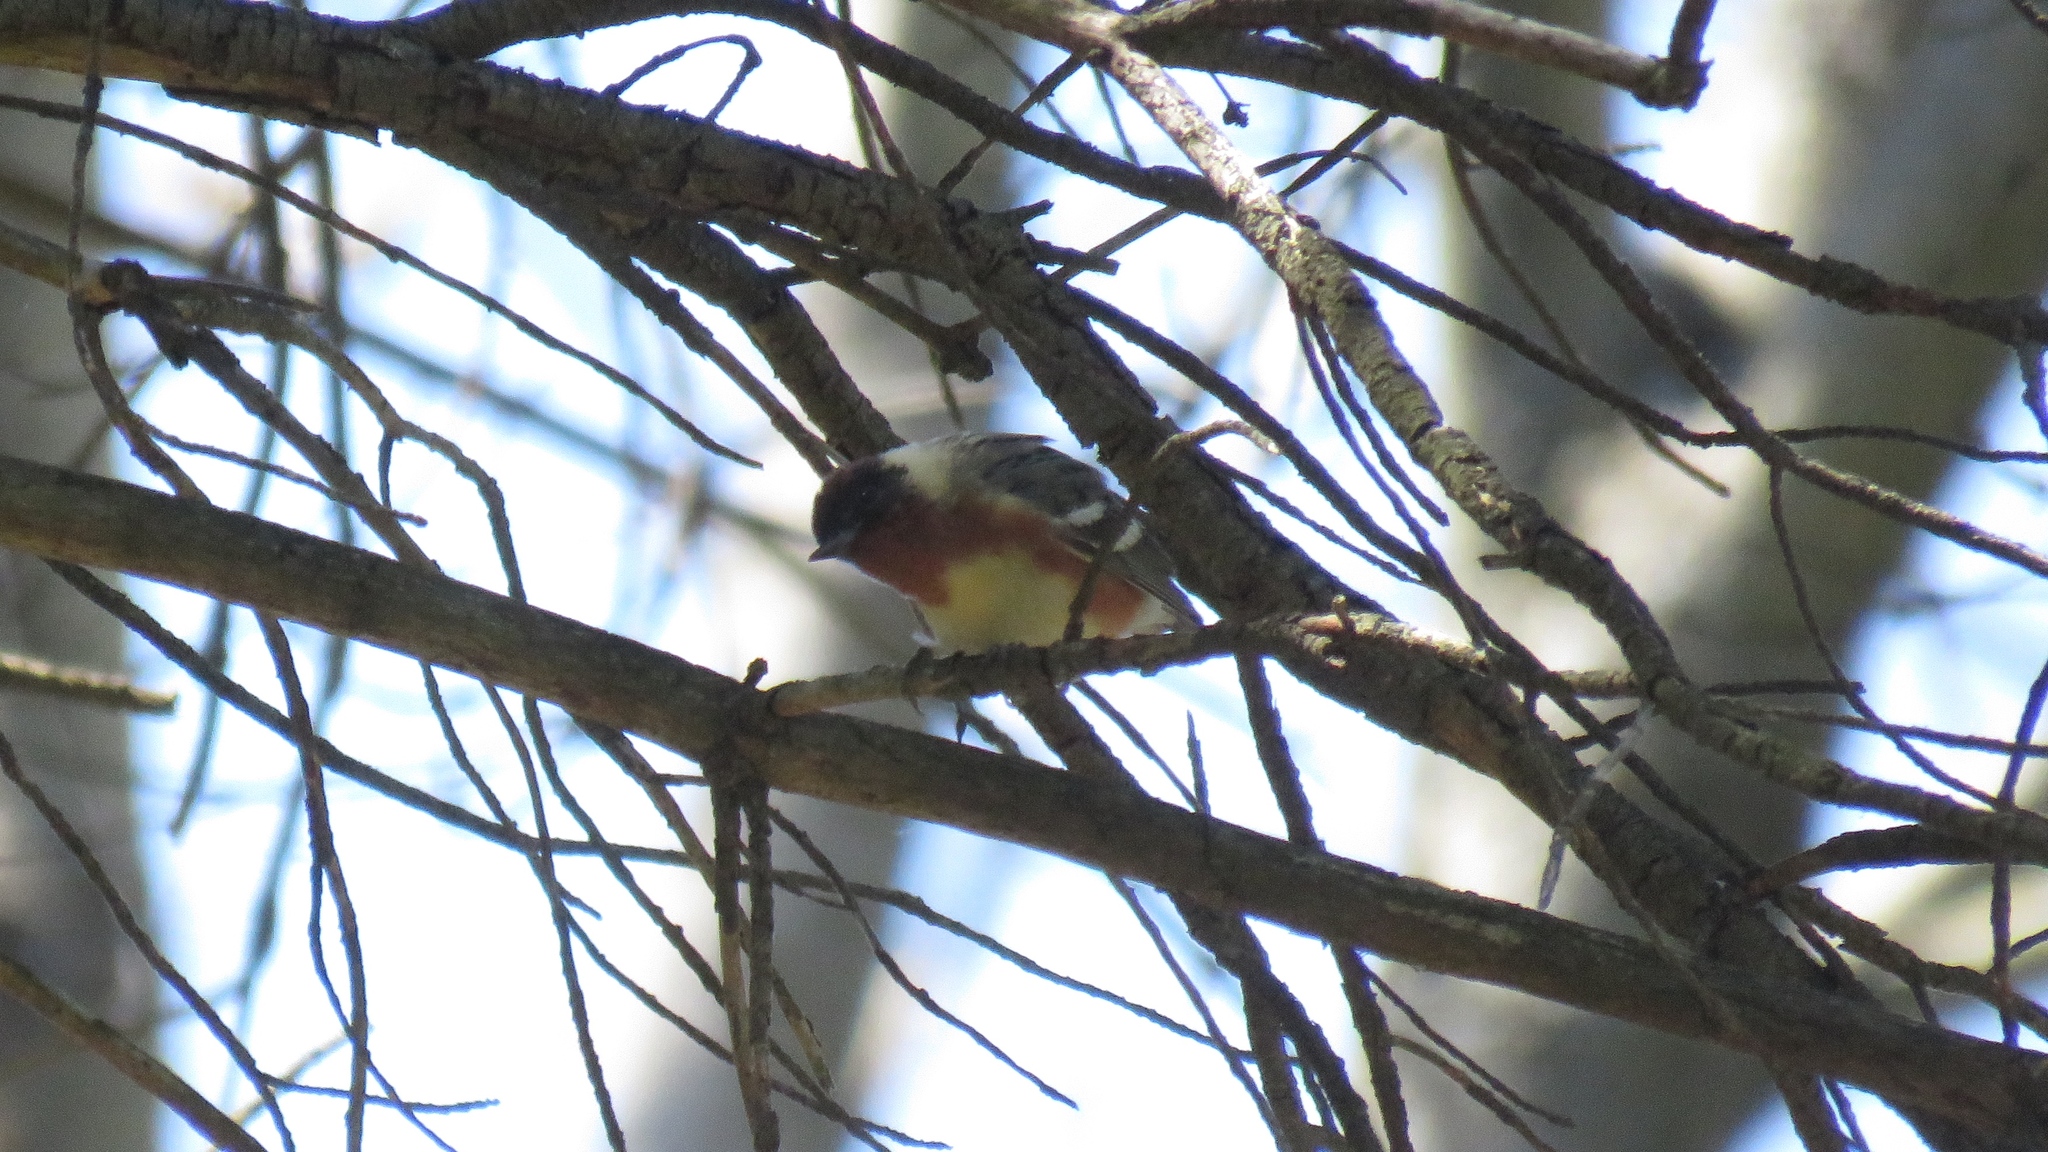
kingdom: Animalia
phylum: Chordata
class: Aves
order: Passeriformes
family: Parulidae
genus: Setophaga
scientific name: Setophaga castanea
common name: Bay-breasted warbler
